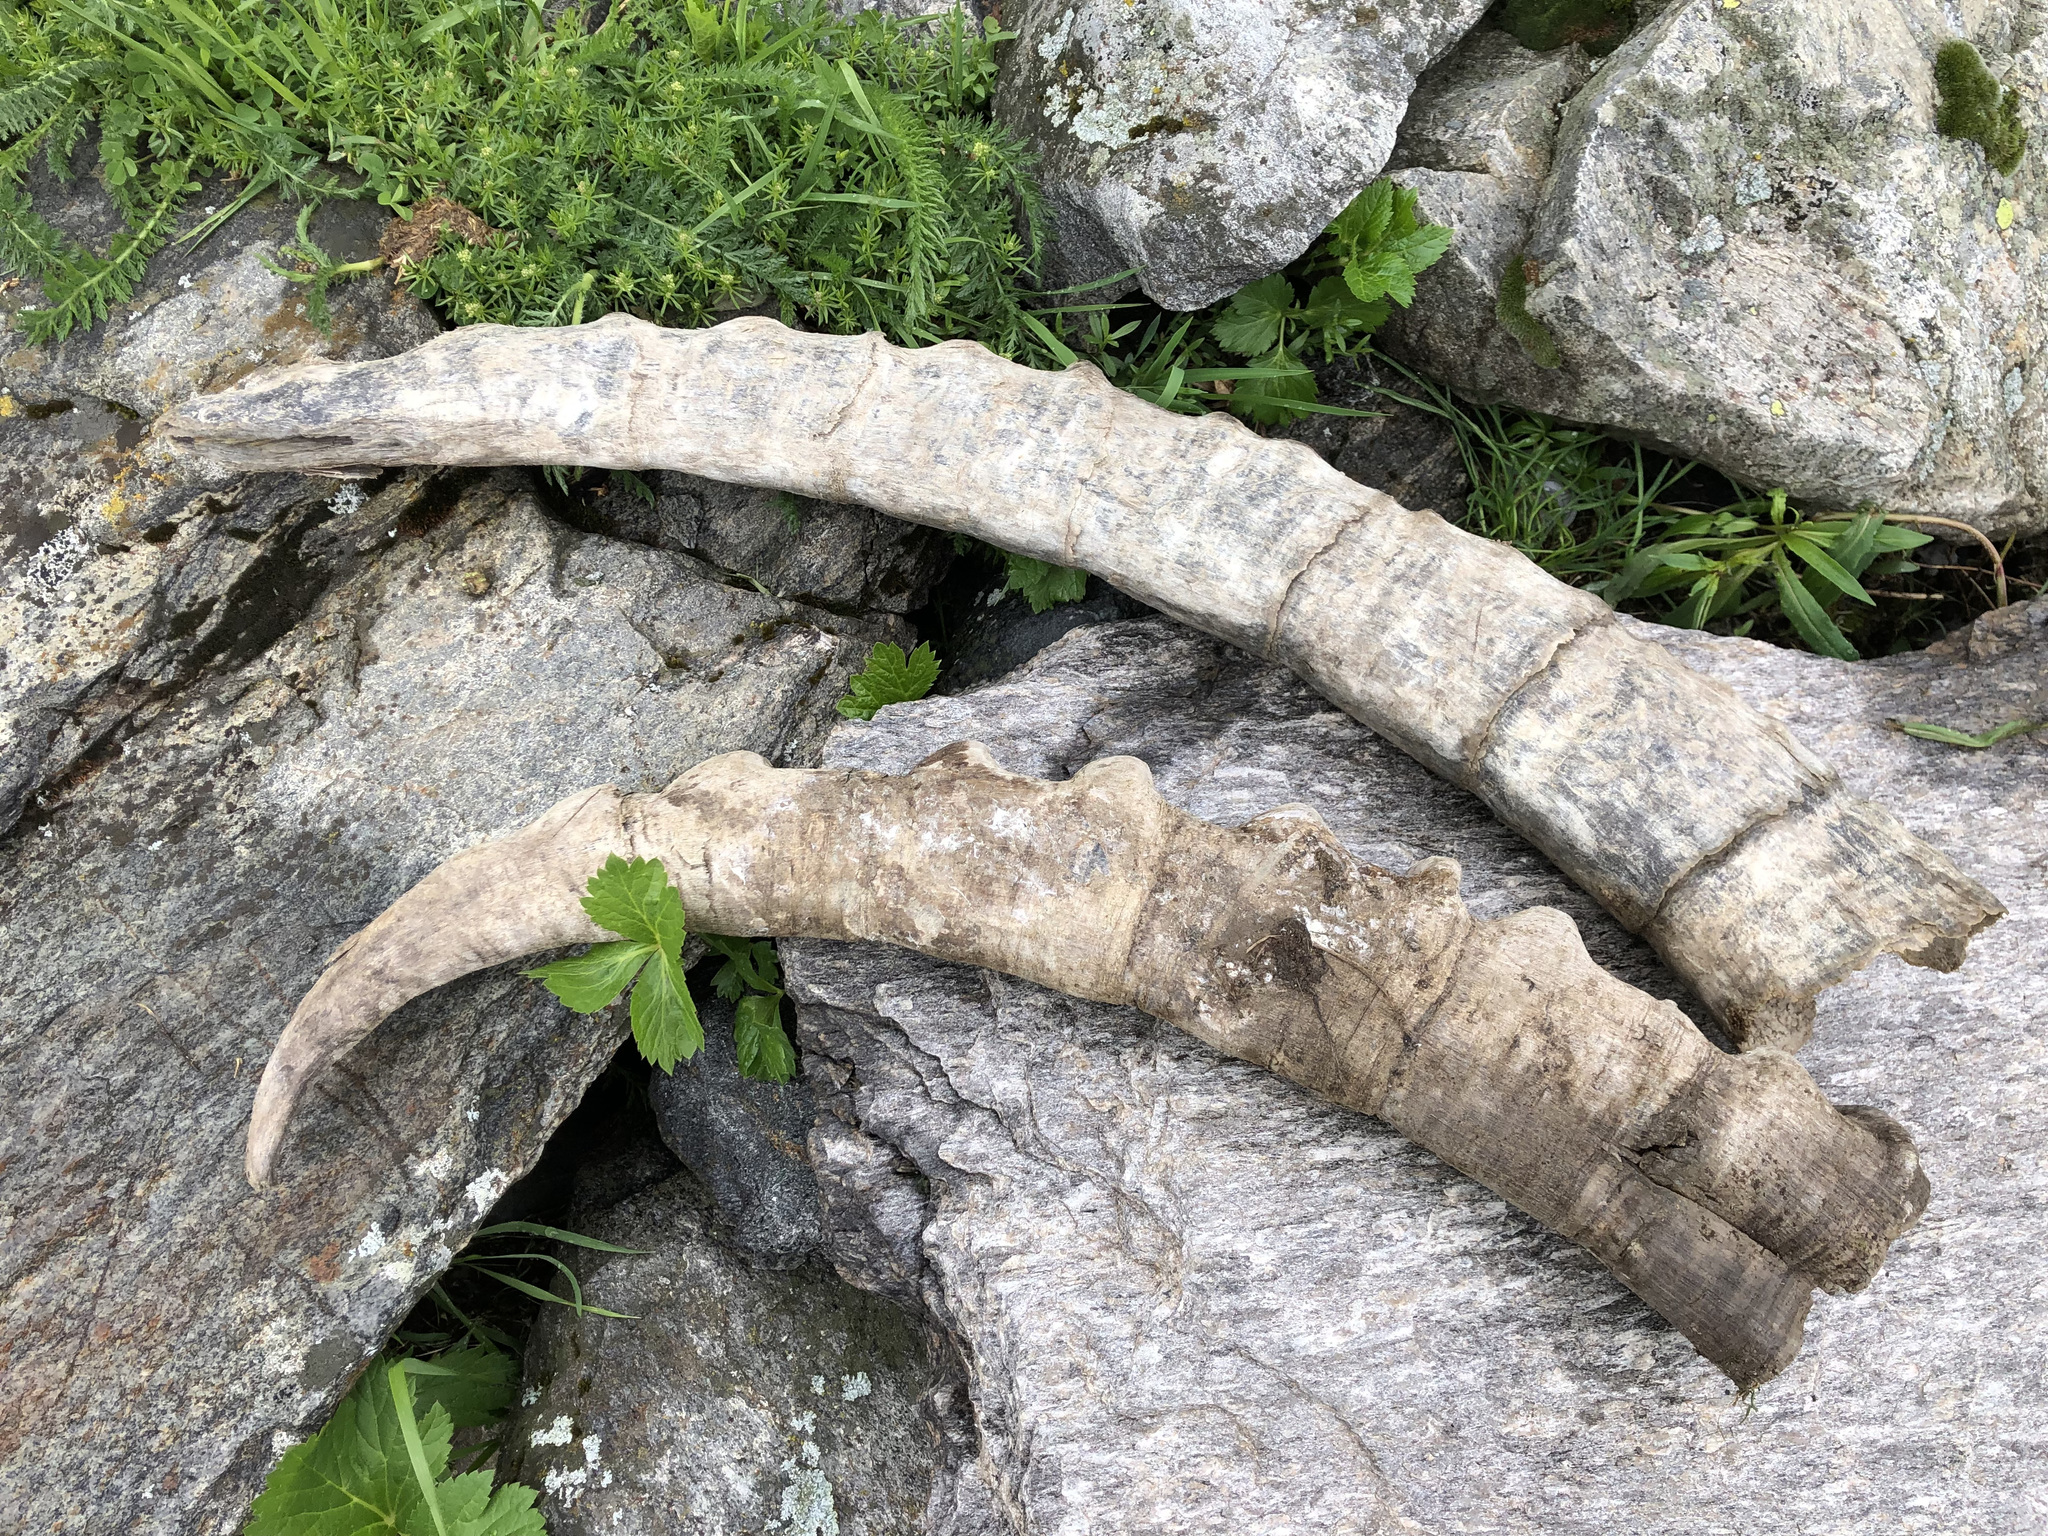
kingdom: Animalia
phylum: Chordata
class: Mammalia
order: Artiodactyla
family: Bovidae
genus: Capra
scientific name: Capra ibex
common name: Alpine ibex
